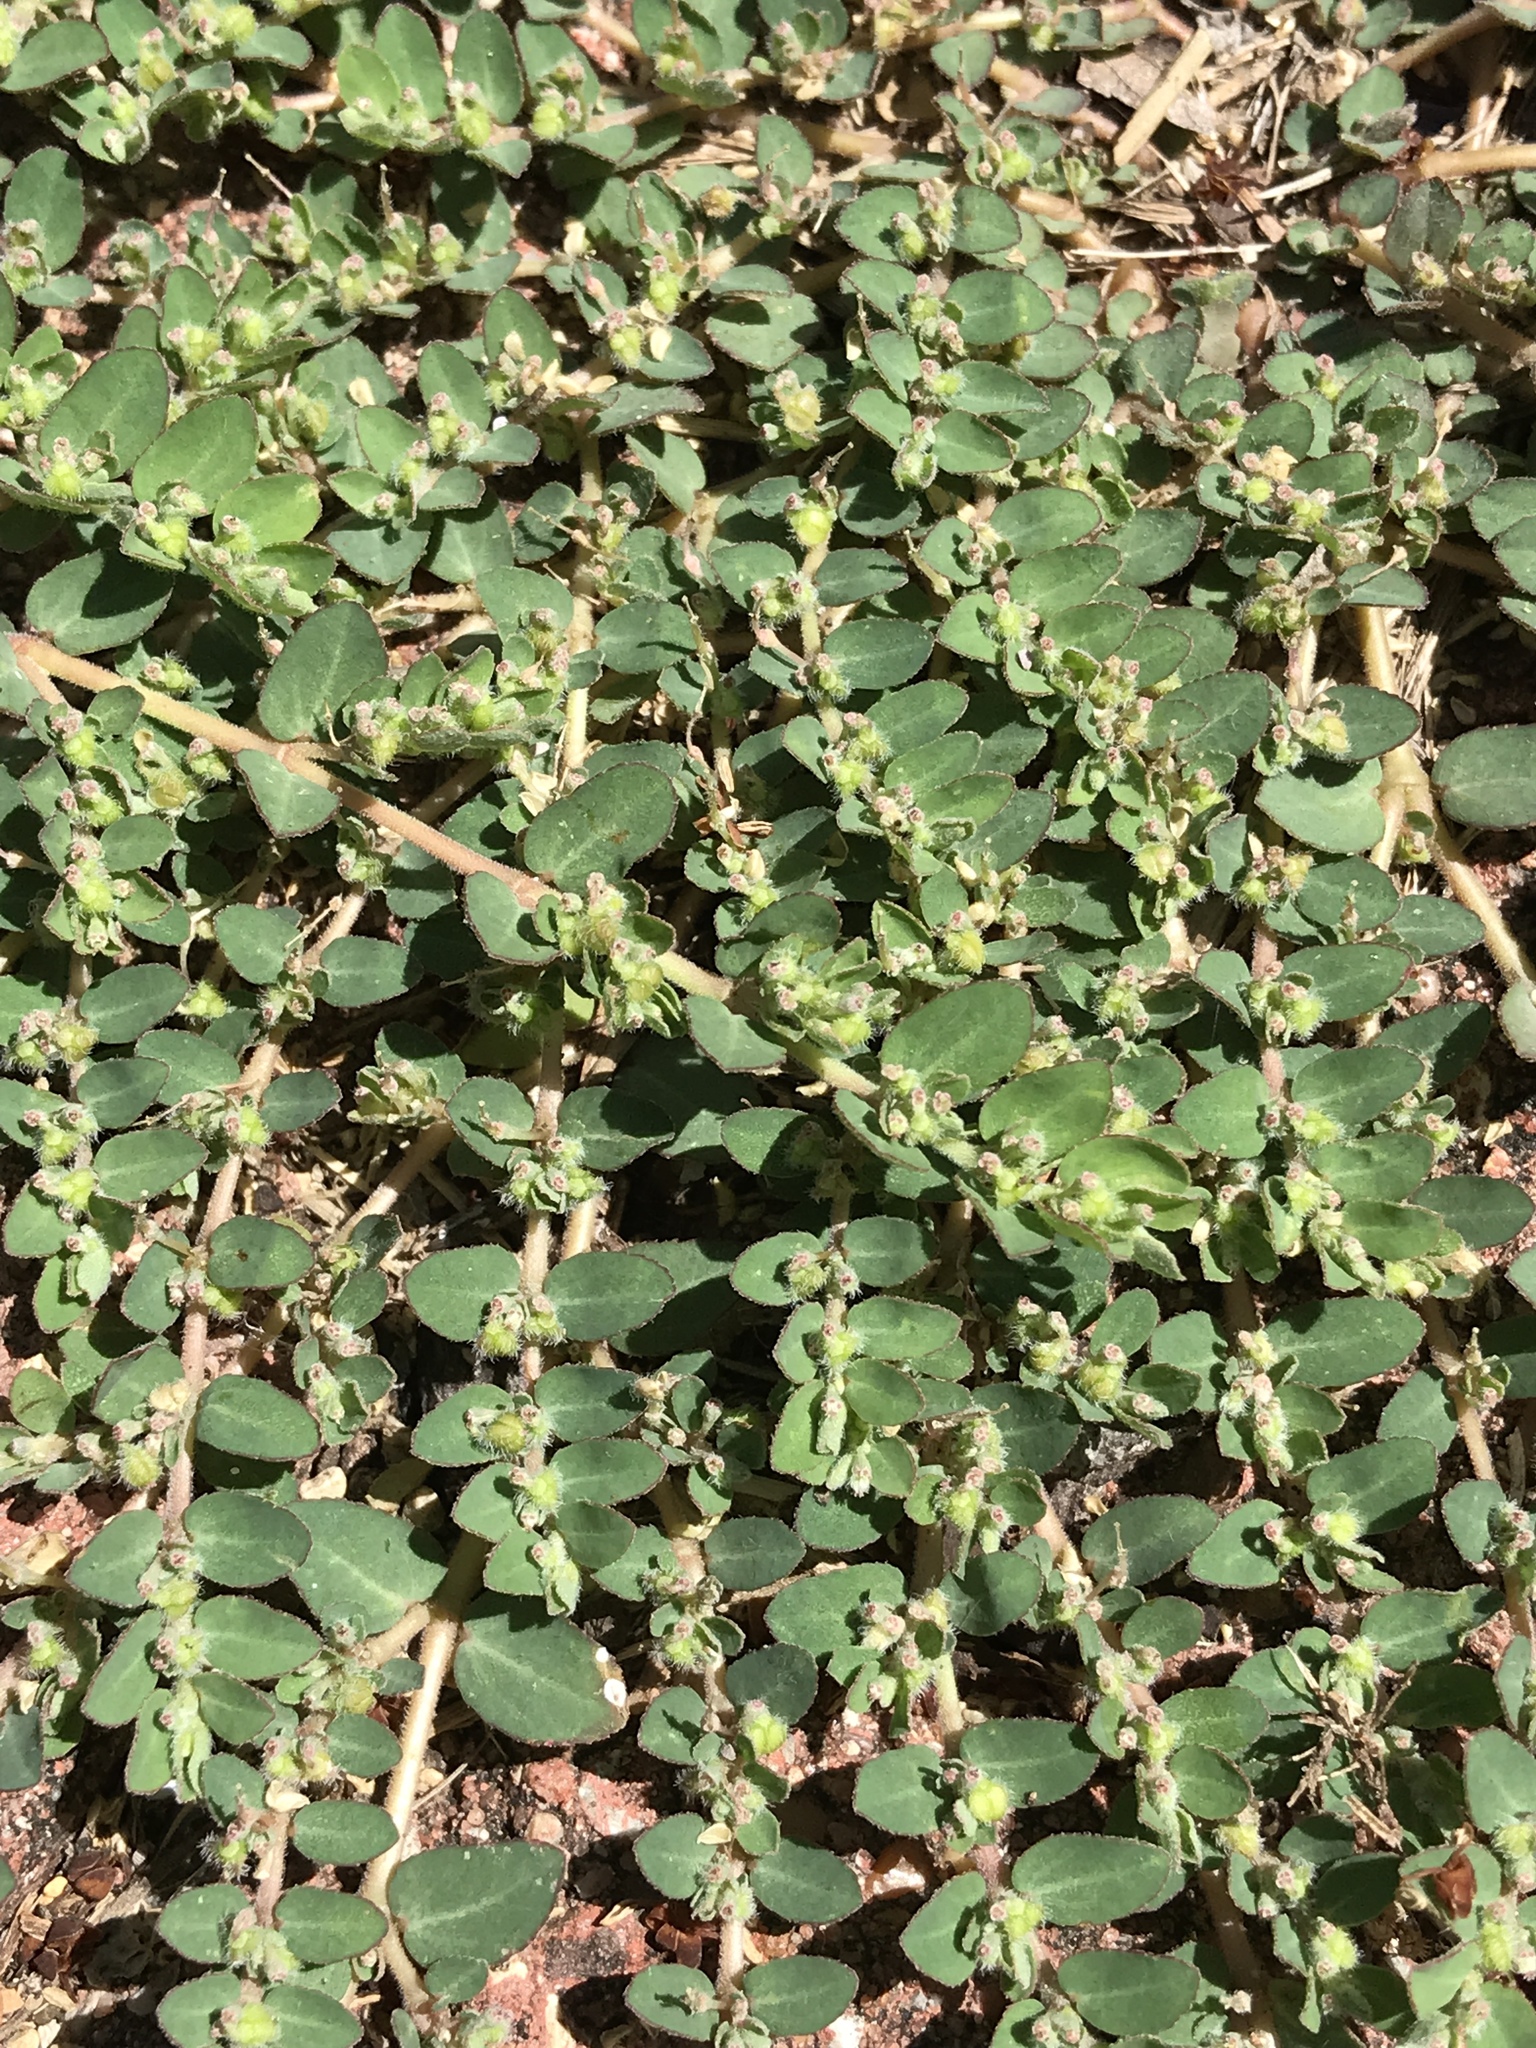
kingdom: Plantae
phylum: Tracheophyta
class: Magnoliopsida
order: Malpighiales
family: Euphorbiaceae
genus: Euphorbia
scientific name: Euphorbia prostrata
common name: Prostrate sandmat
